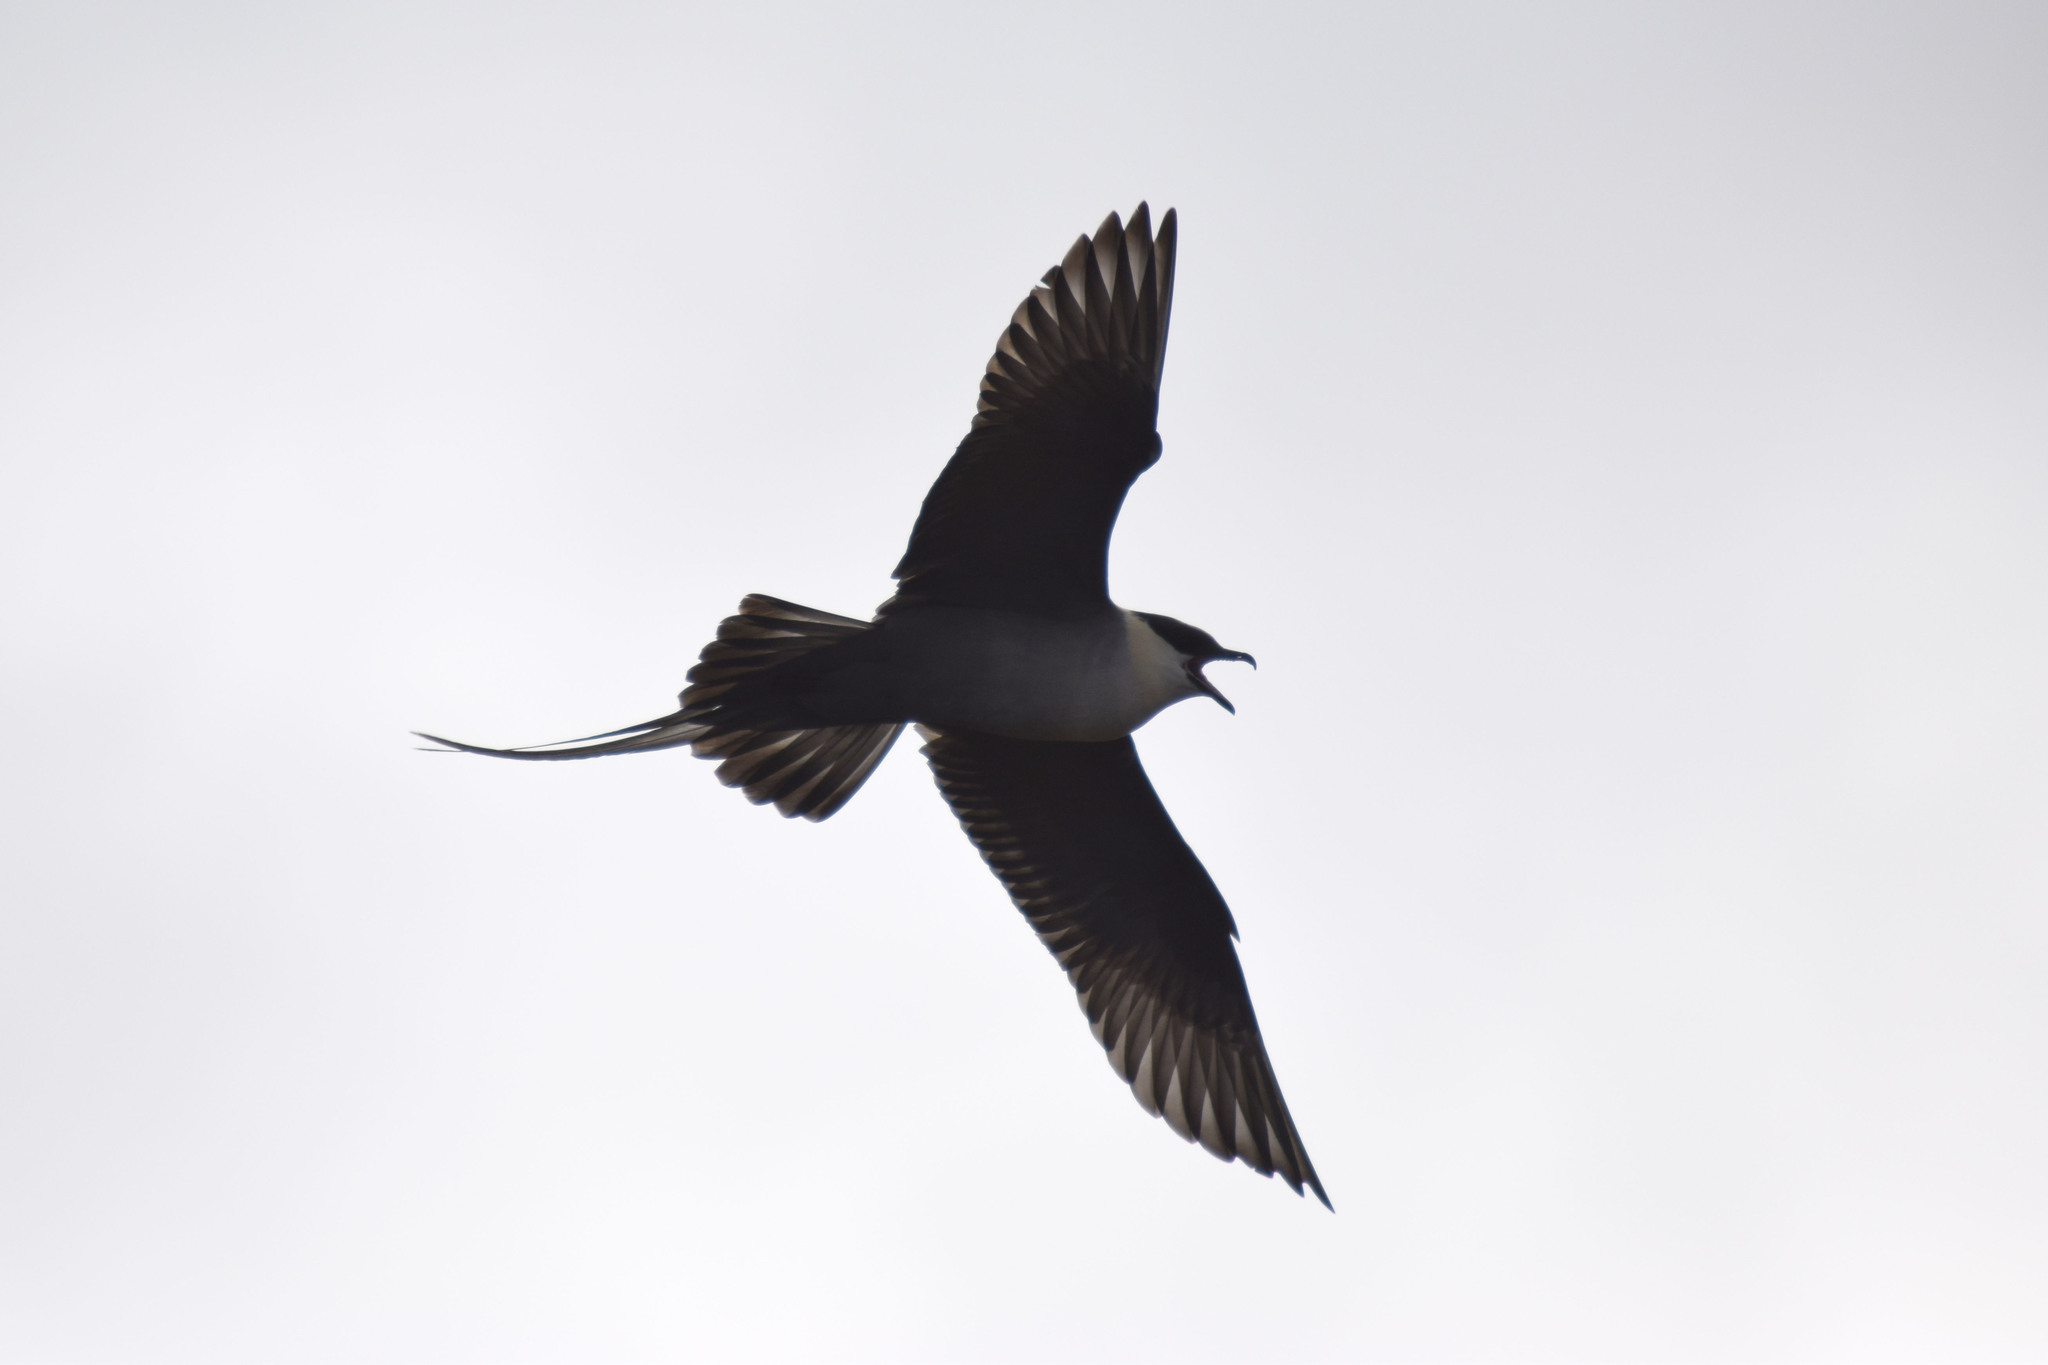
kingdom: Animalia
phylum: Chordata
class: Aves
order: Charadriiformes
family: Stercorariidae
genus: Stercorarius
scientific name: Stercorarius longicaudus
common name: Long-tailed jaeger
